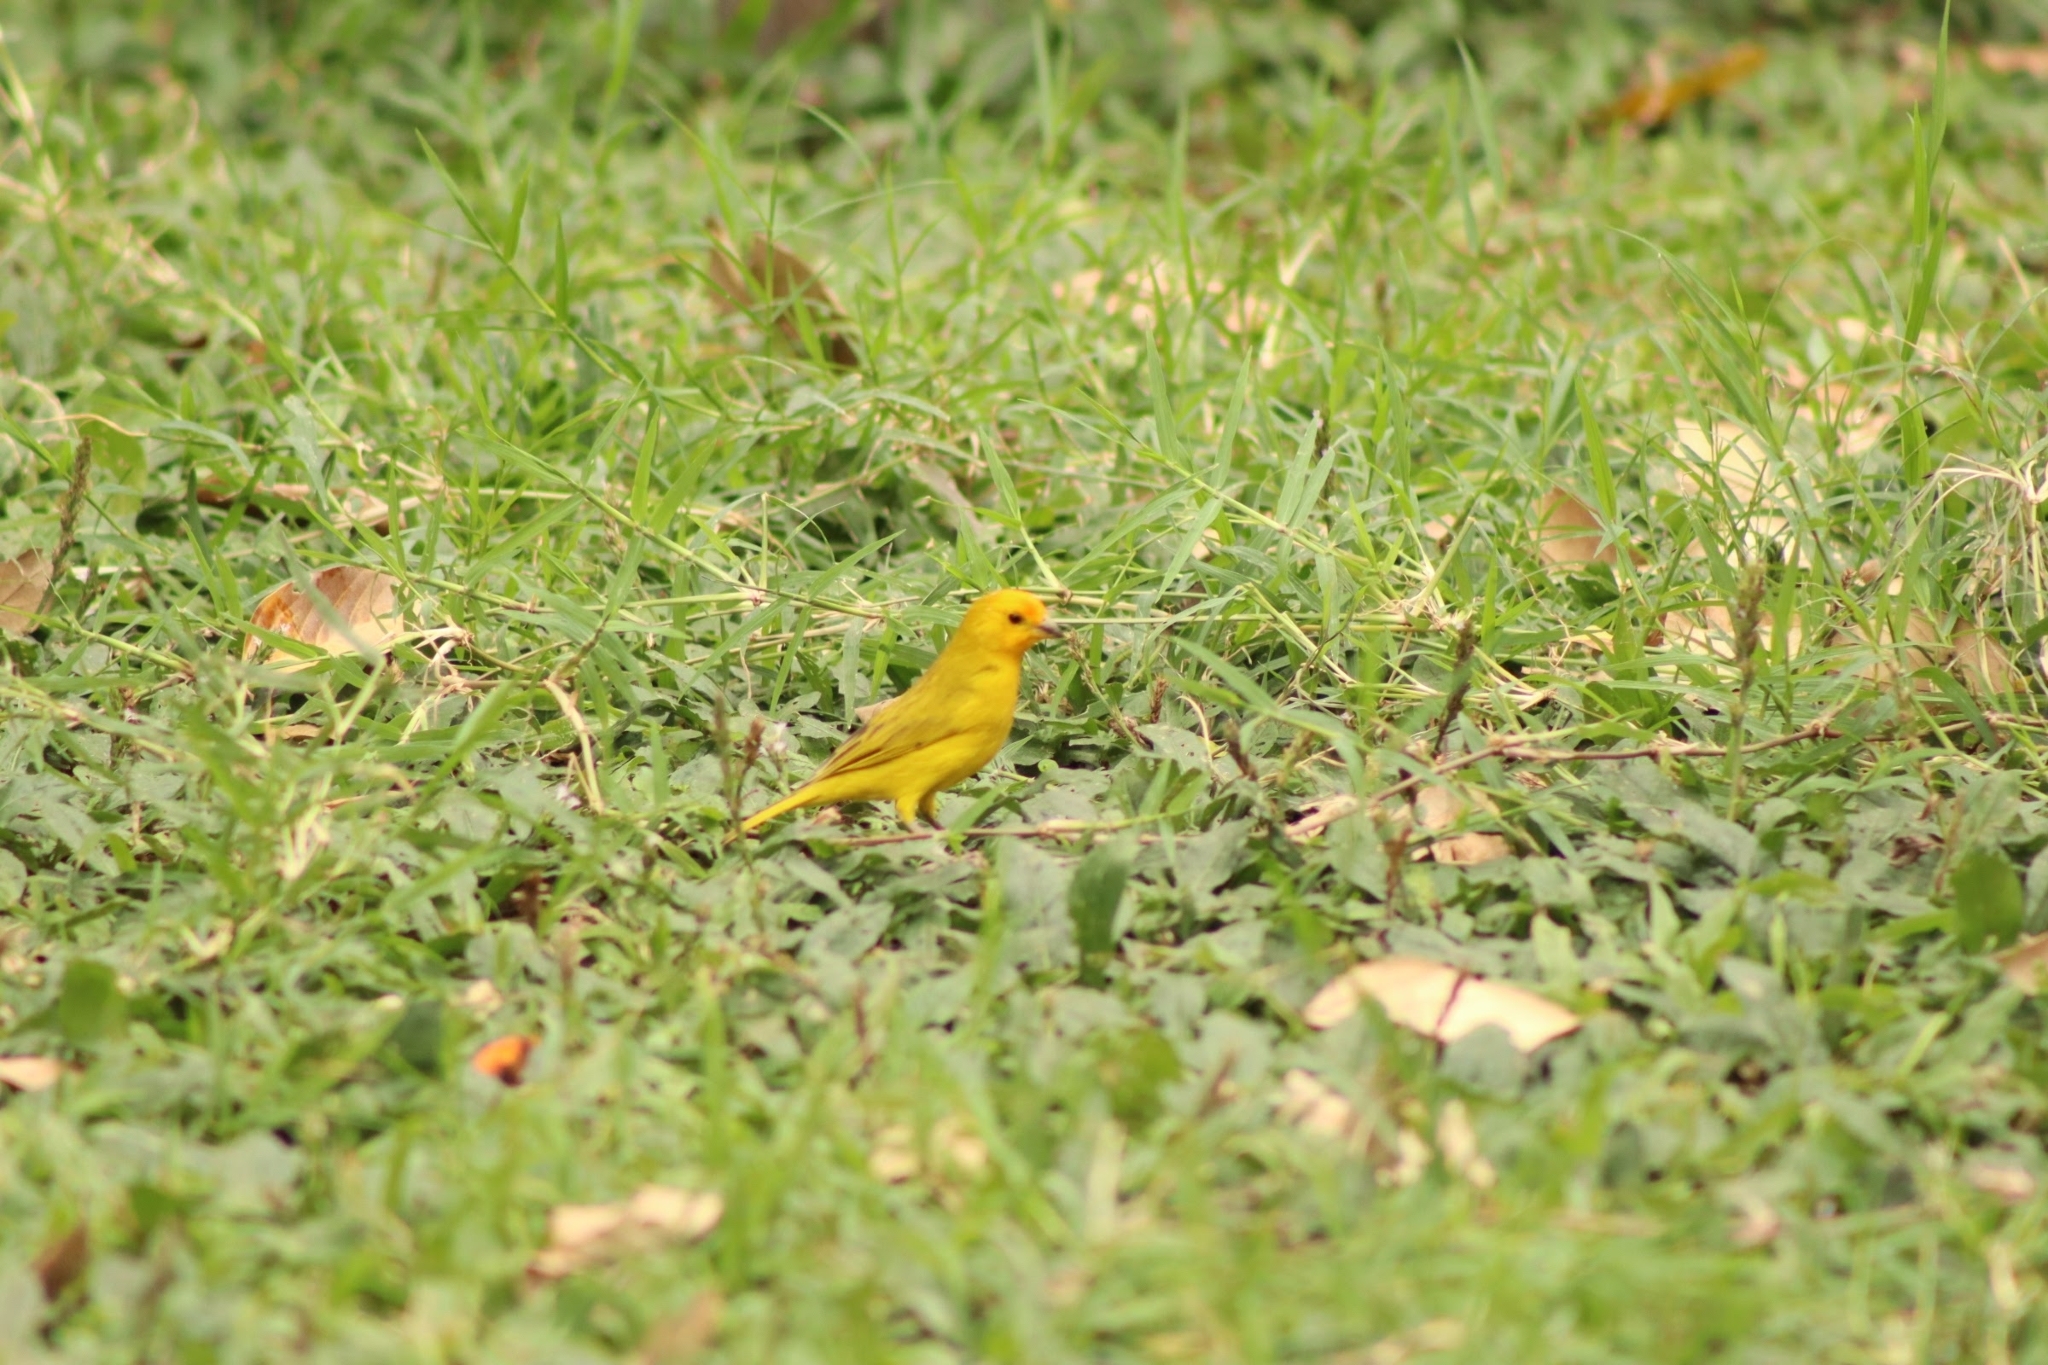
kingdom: Animalia
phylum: Chordata
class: Aves
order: Passeriformes
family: Thraupidae
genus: Sicalis
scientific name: Sicalis flaveola
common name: Saffron finch
